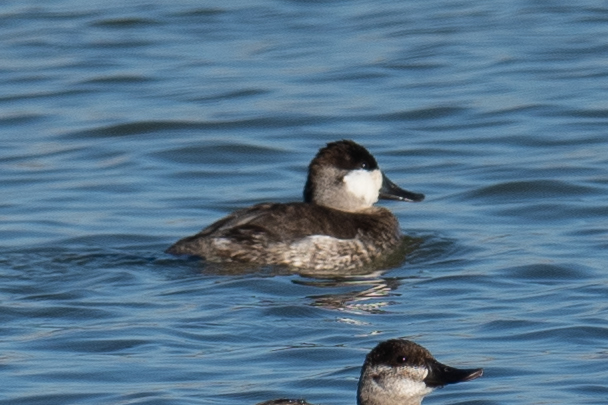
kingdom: Animalia
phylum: Chordata
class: Aves
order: Anseriformes
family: Anatidae
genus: Oxyura
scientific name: Oxyura jamaicensis
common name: Ruddy duck
